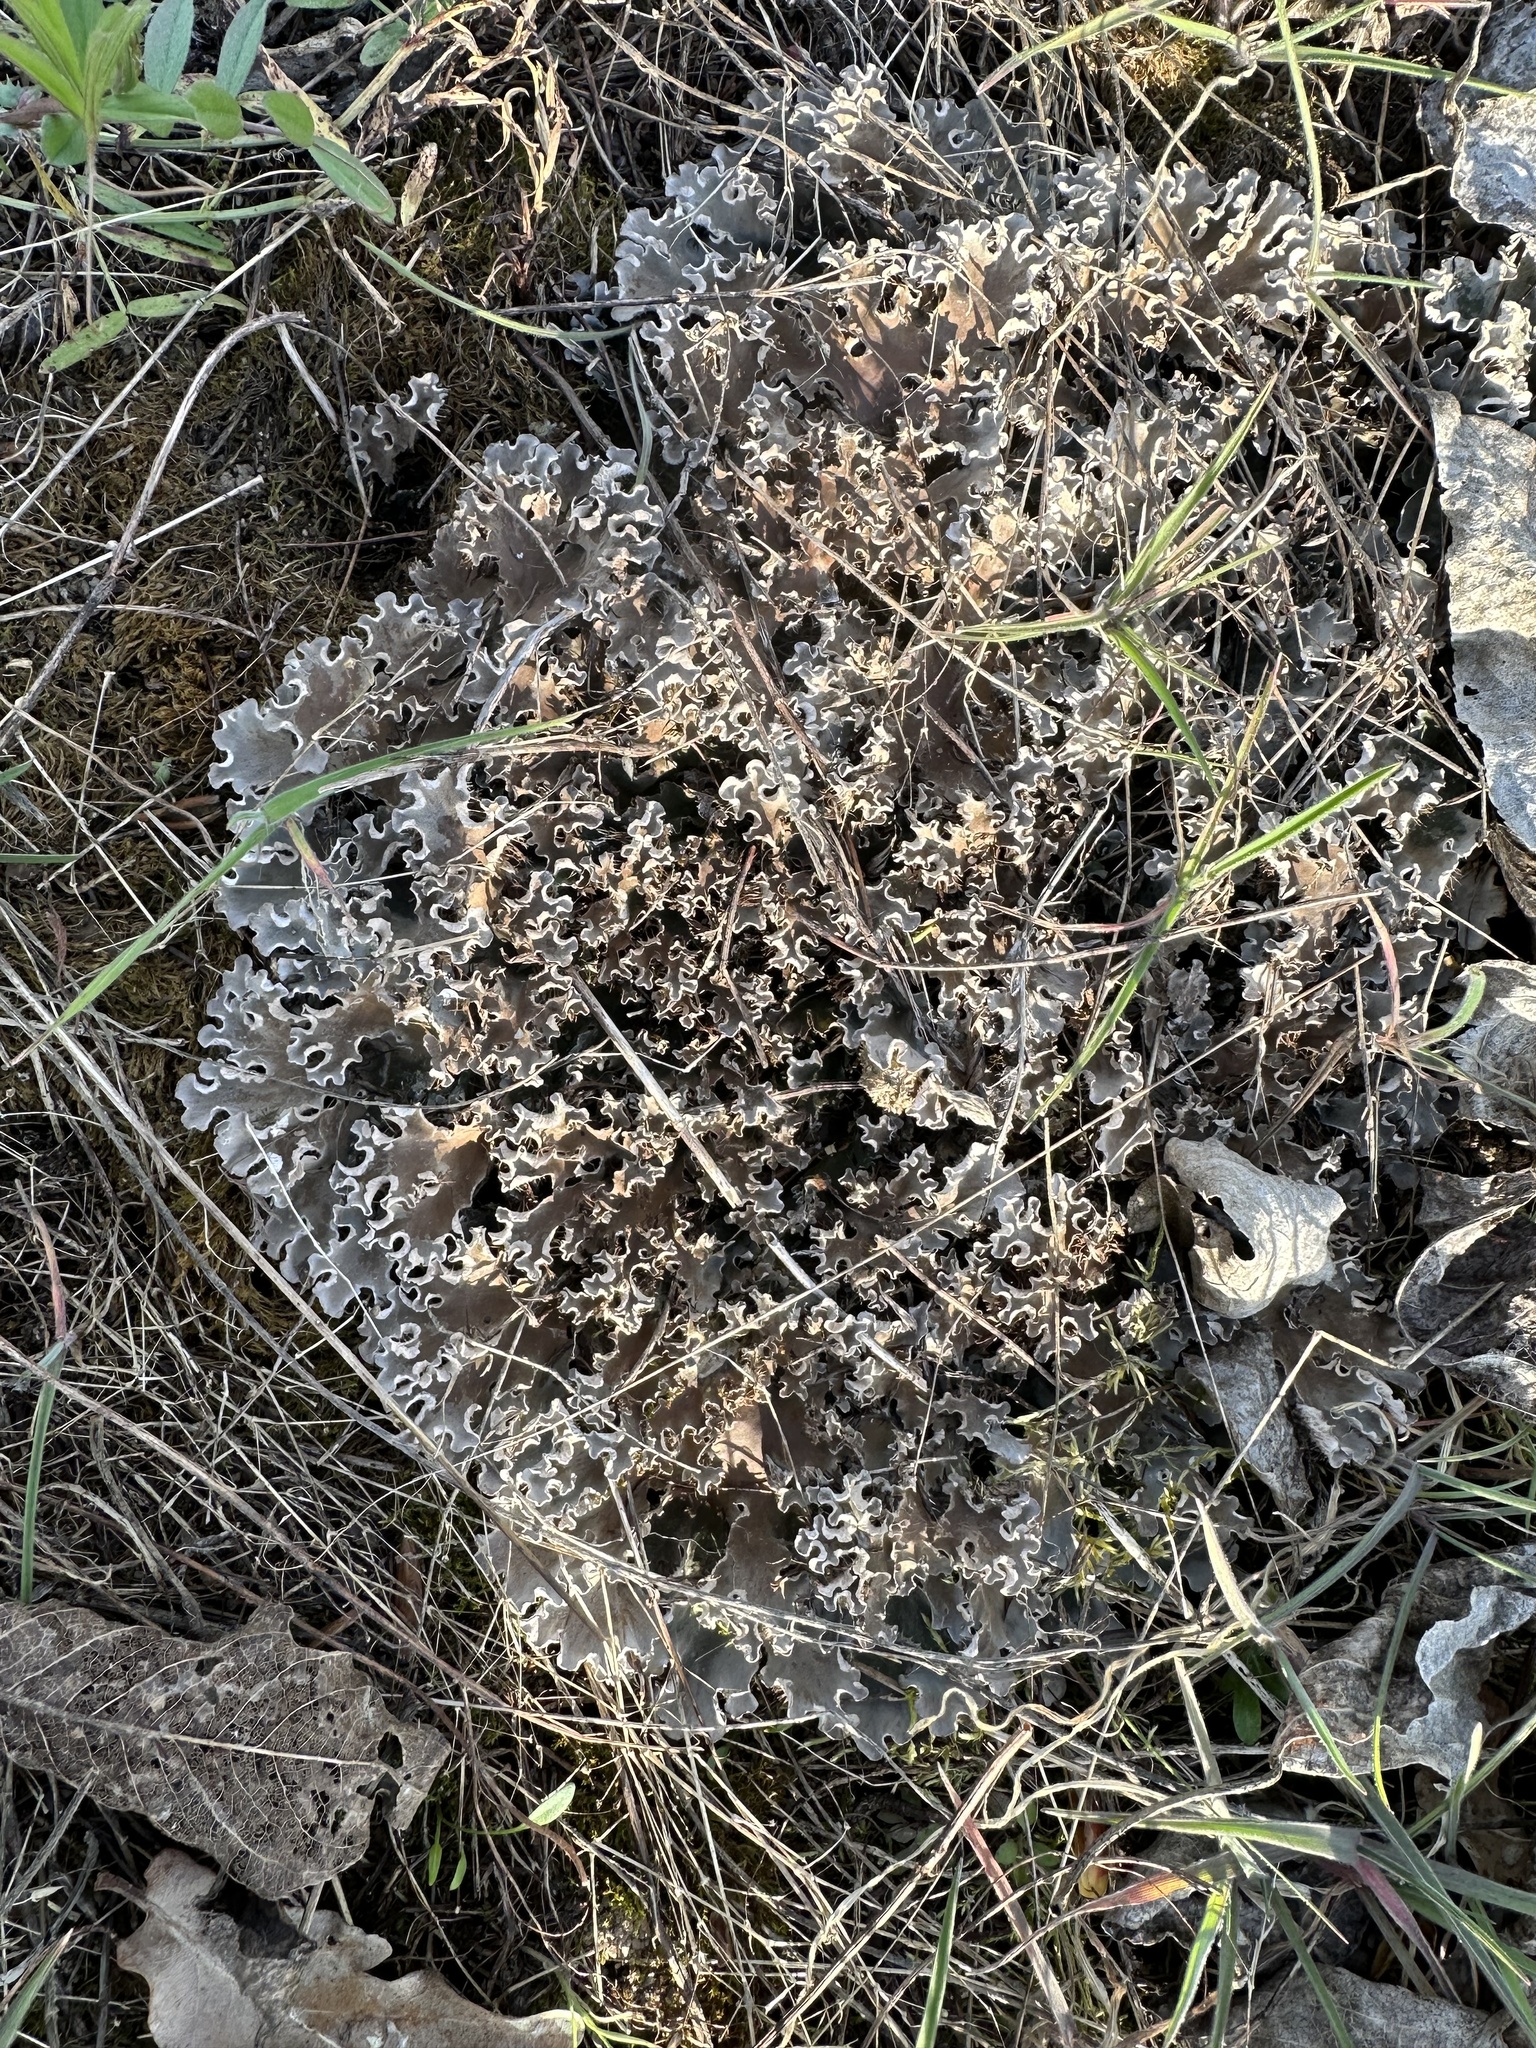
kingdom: Fungi
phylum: Ascomycota
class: Lecanoromycetes
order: Peltigerales
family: Peltigeraceae
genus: Peltigera
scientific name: Peltigera rufescens
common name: Field dog lichen
